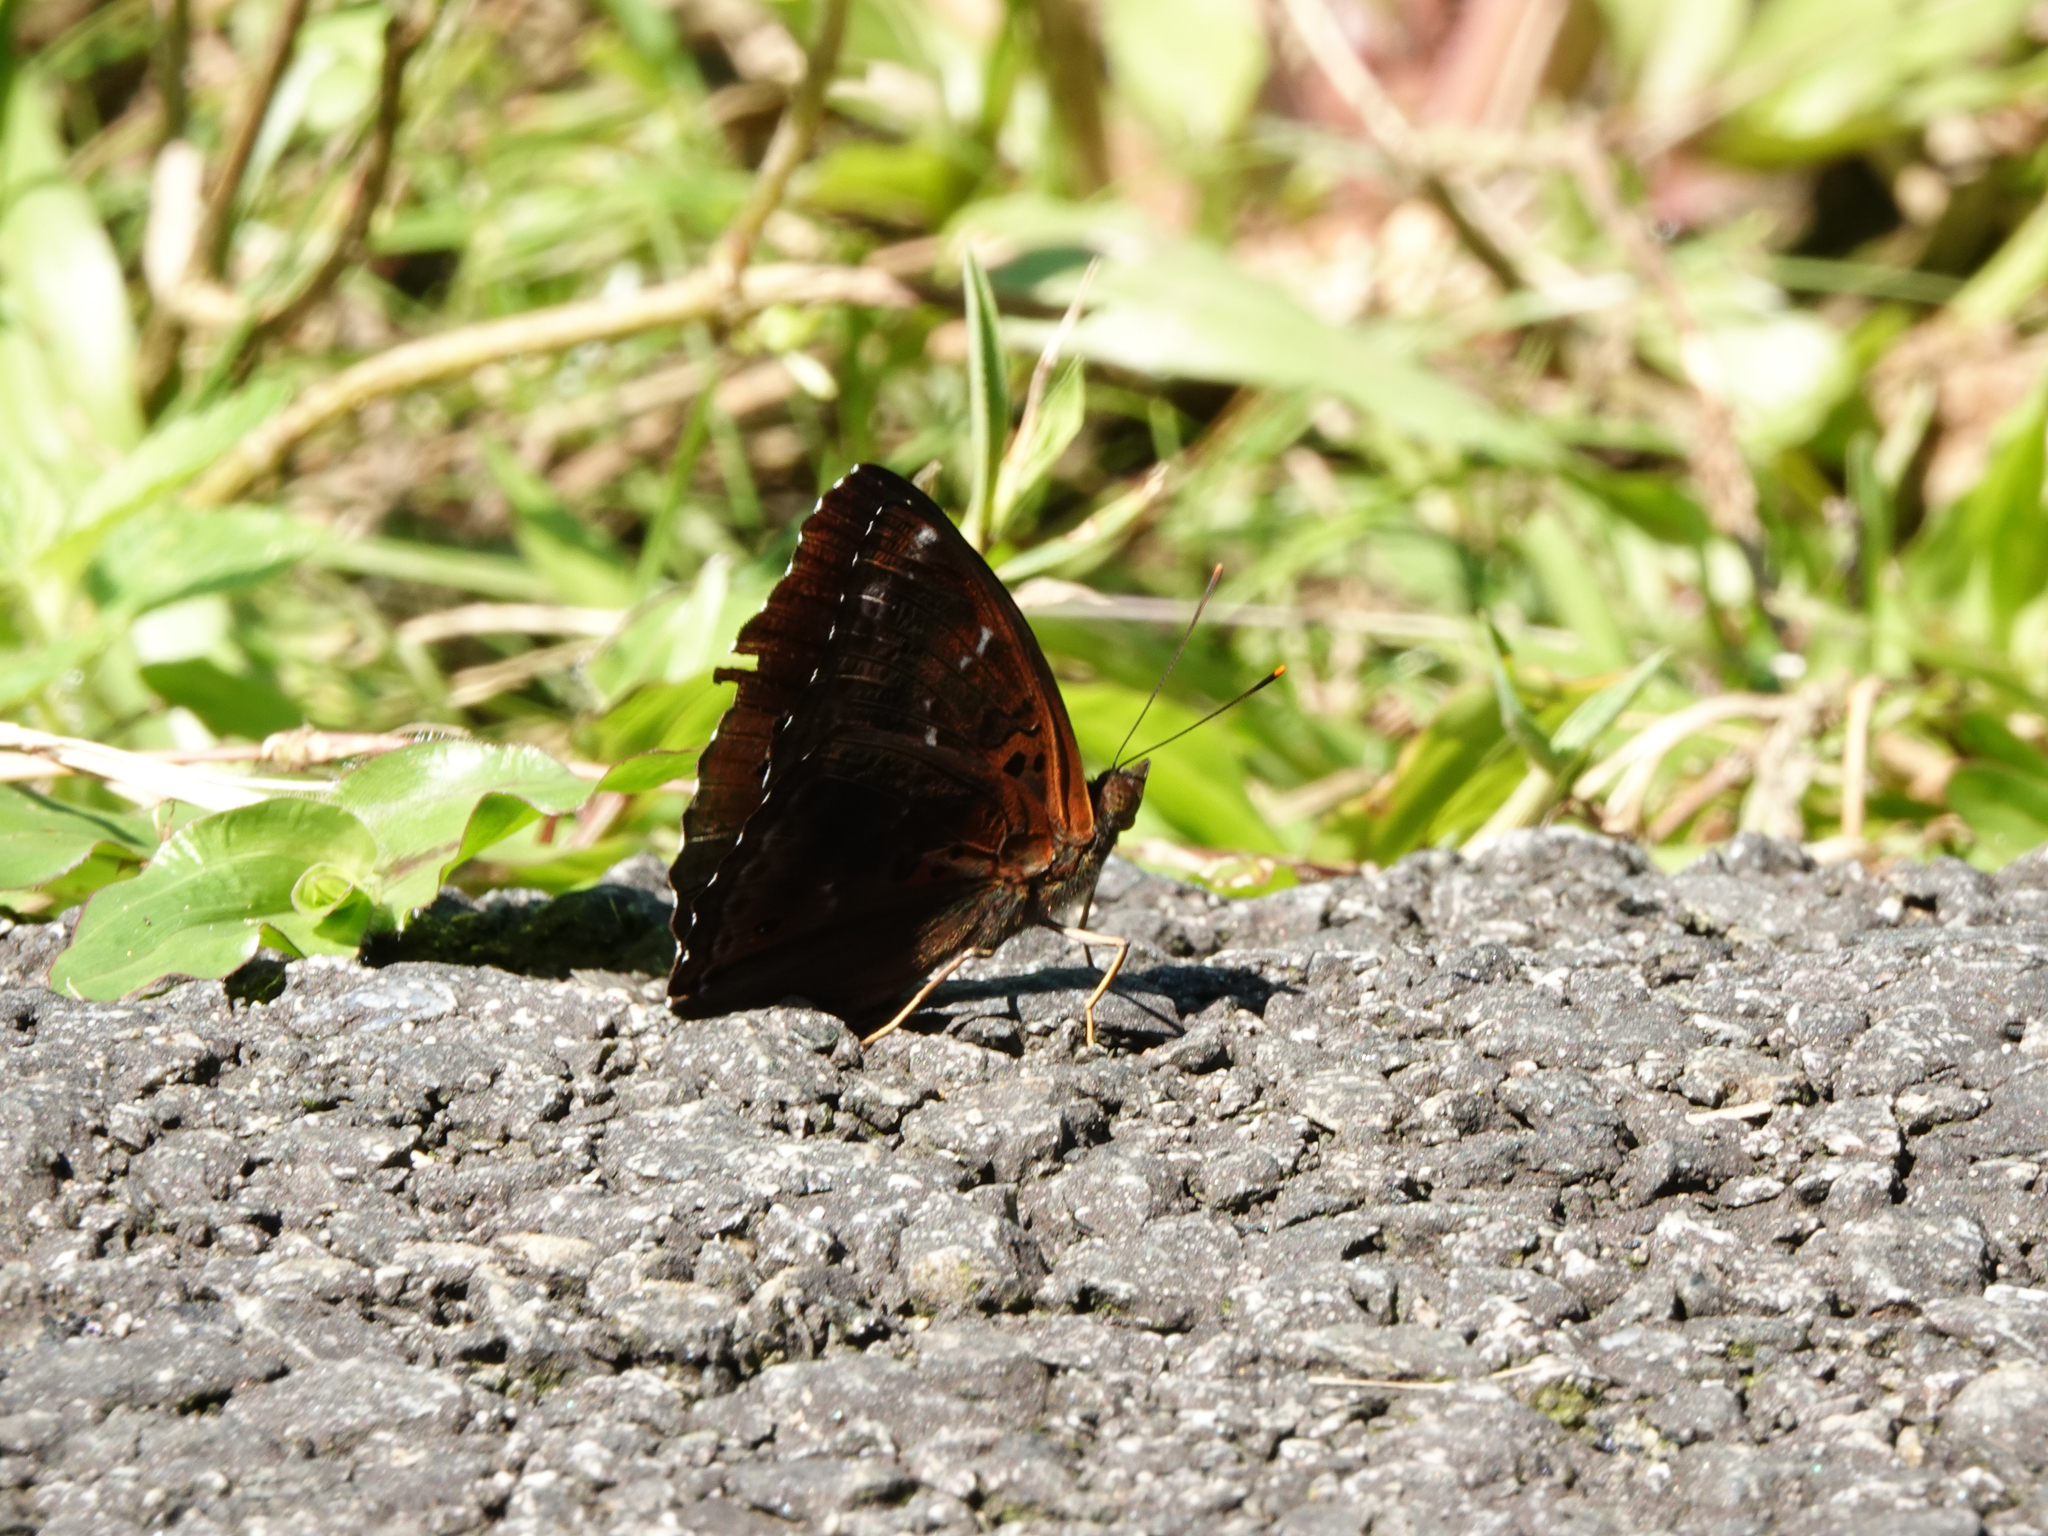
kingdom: Animalia
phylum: Arthropoda
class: Insecta
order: Lepidoptera
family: Nymphalidae
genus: Apatura
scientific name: Apatura Rohana spec
